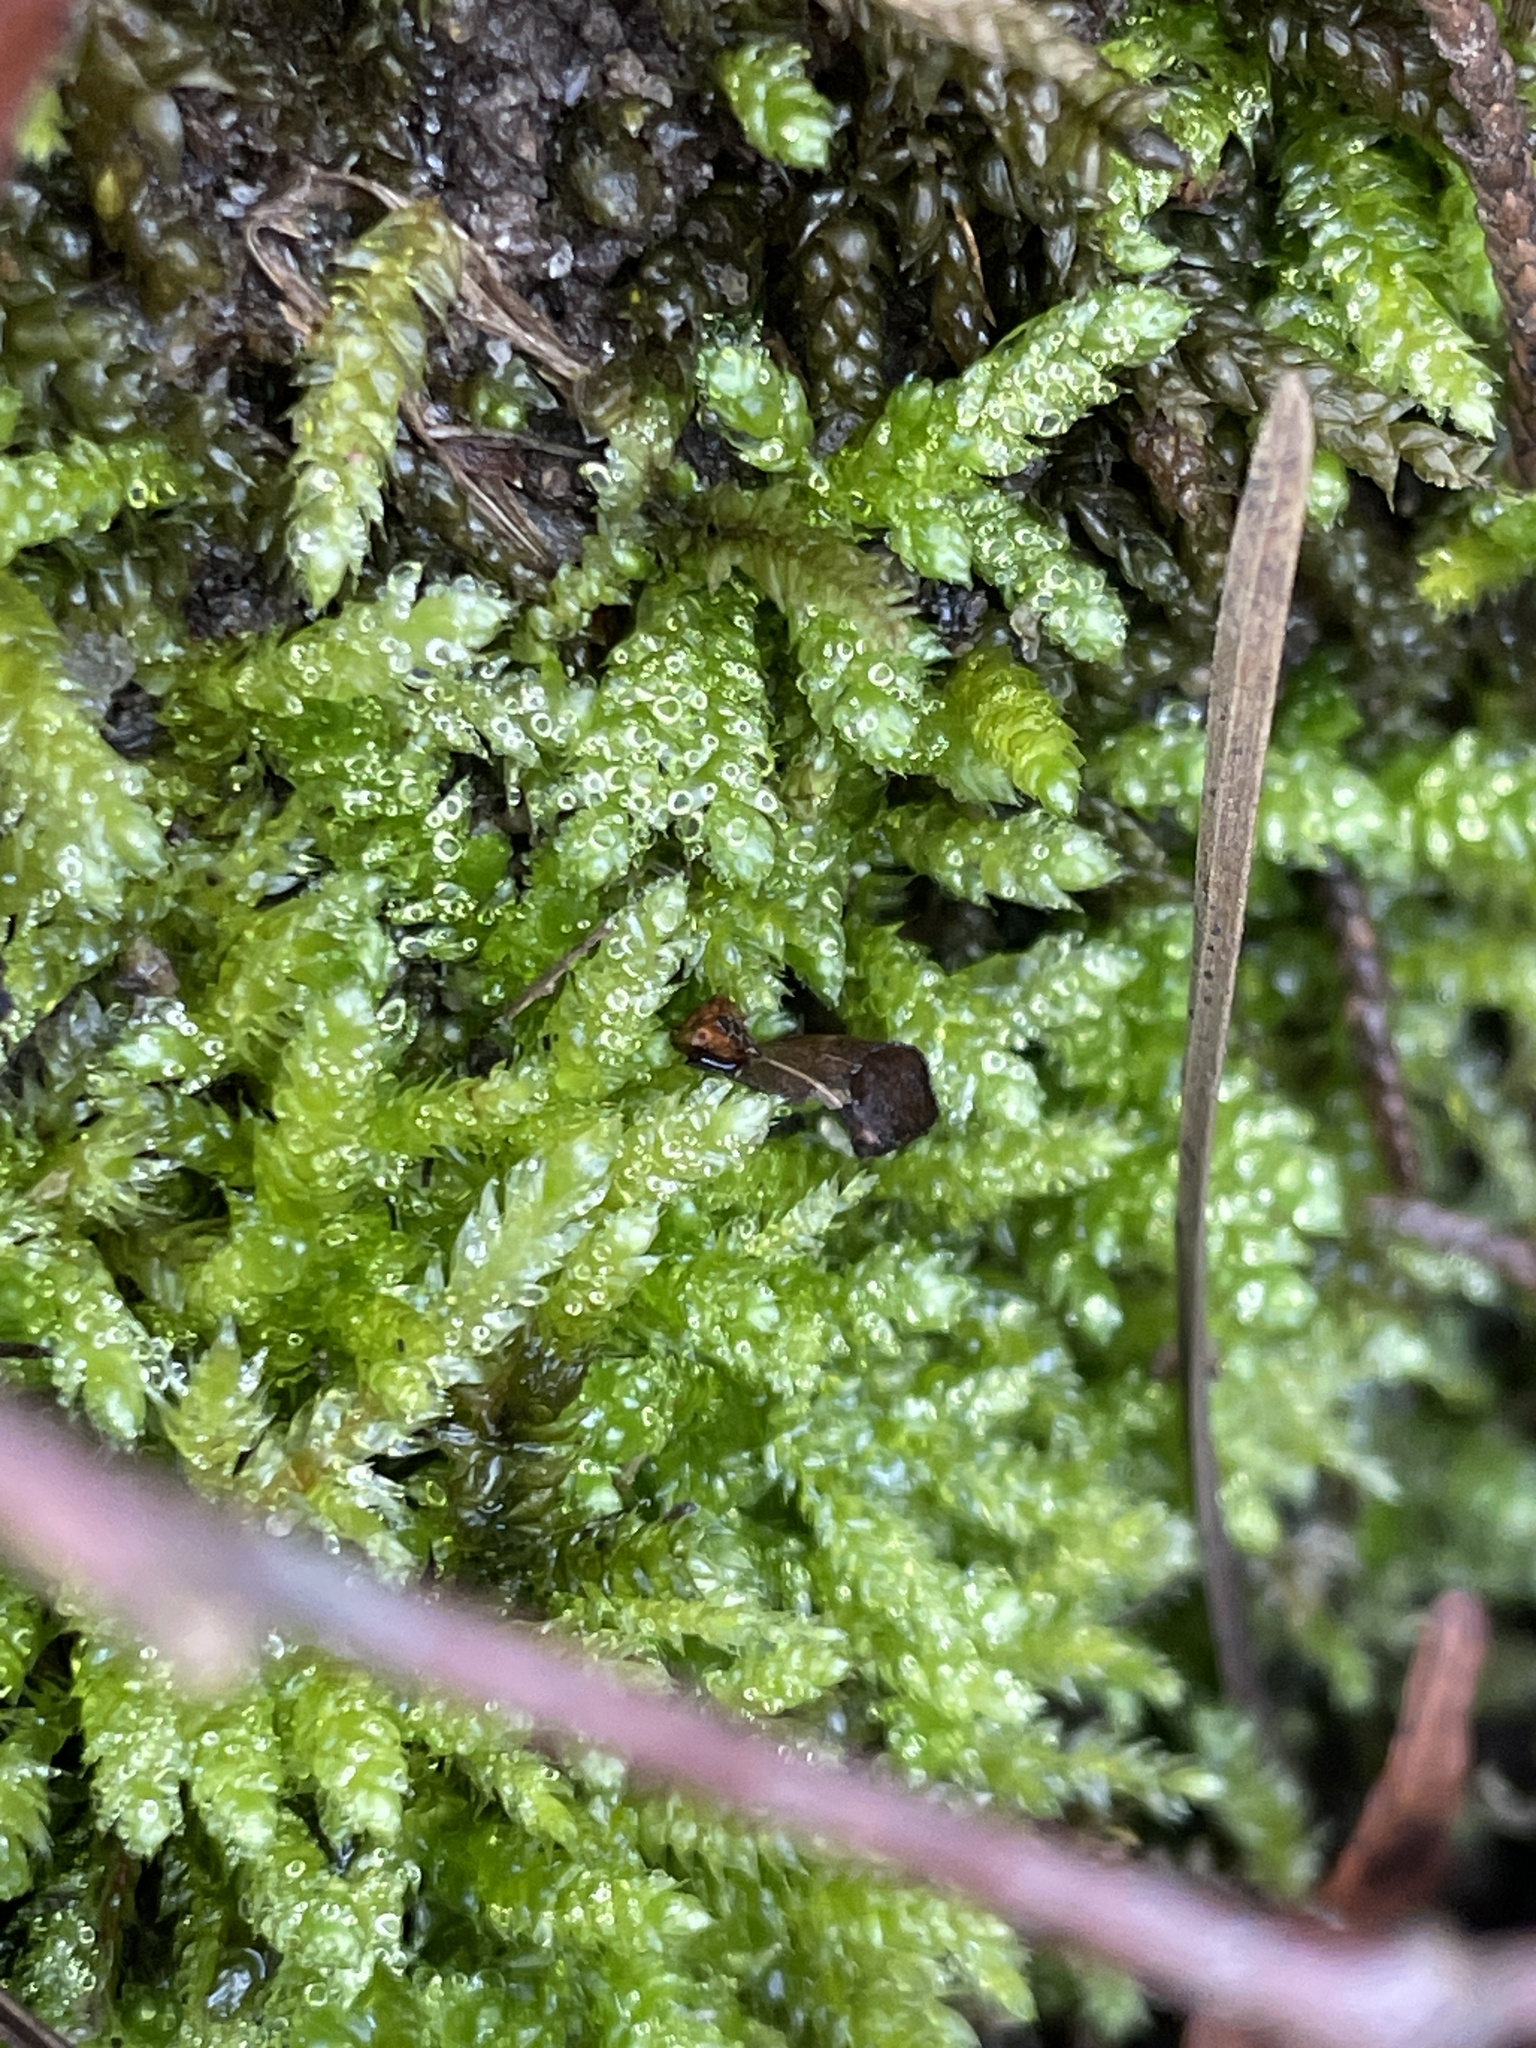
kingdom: Plantae
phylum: Bryophyta
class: Bryopsida
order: Hypnales
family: Brachytheciaceae
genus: Bryoandersonia
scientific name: Bryoandersonia illecebra
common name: Spoon-leaved moss
